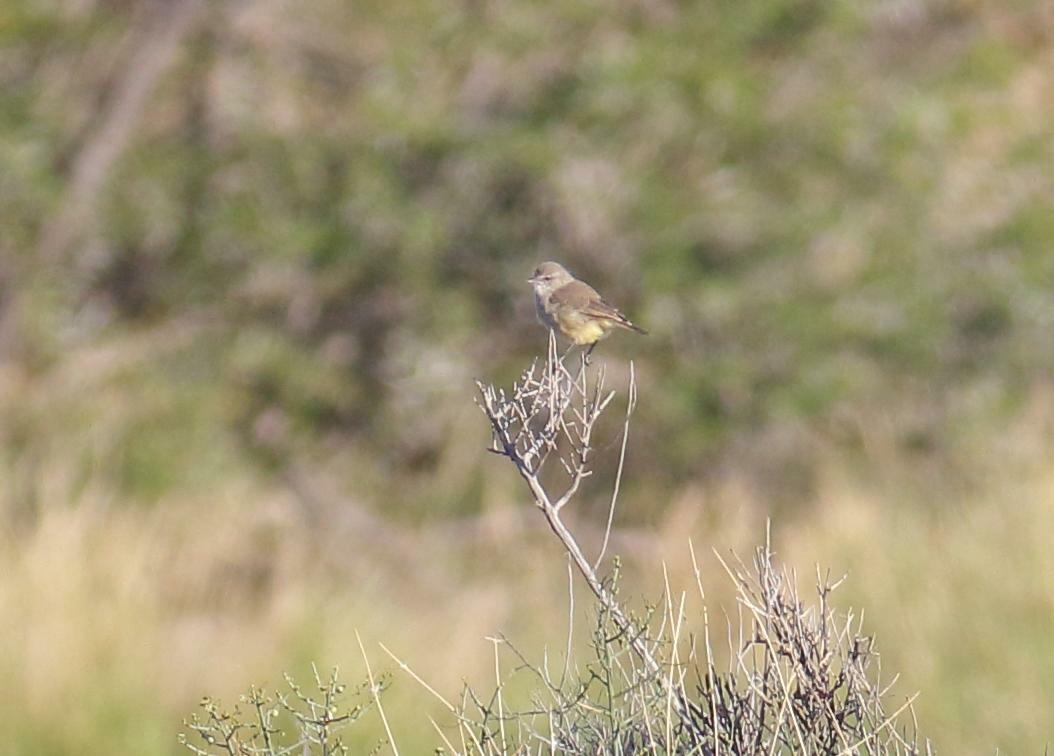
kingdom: Animalia
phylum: Chordata
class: Aves
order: Passeriformes
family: Cisticolidae
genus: Eremomela
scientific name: Eremomela icteropygialis
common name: Yellow-bellied eremomela
